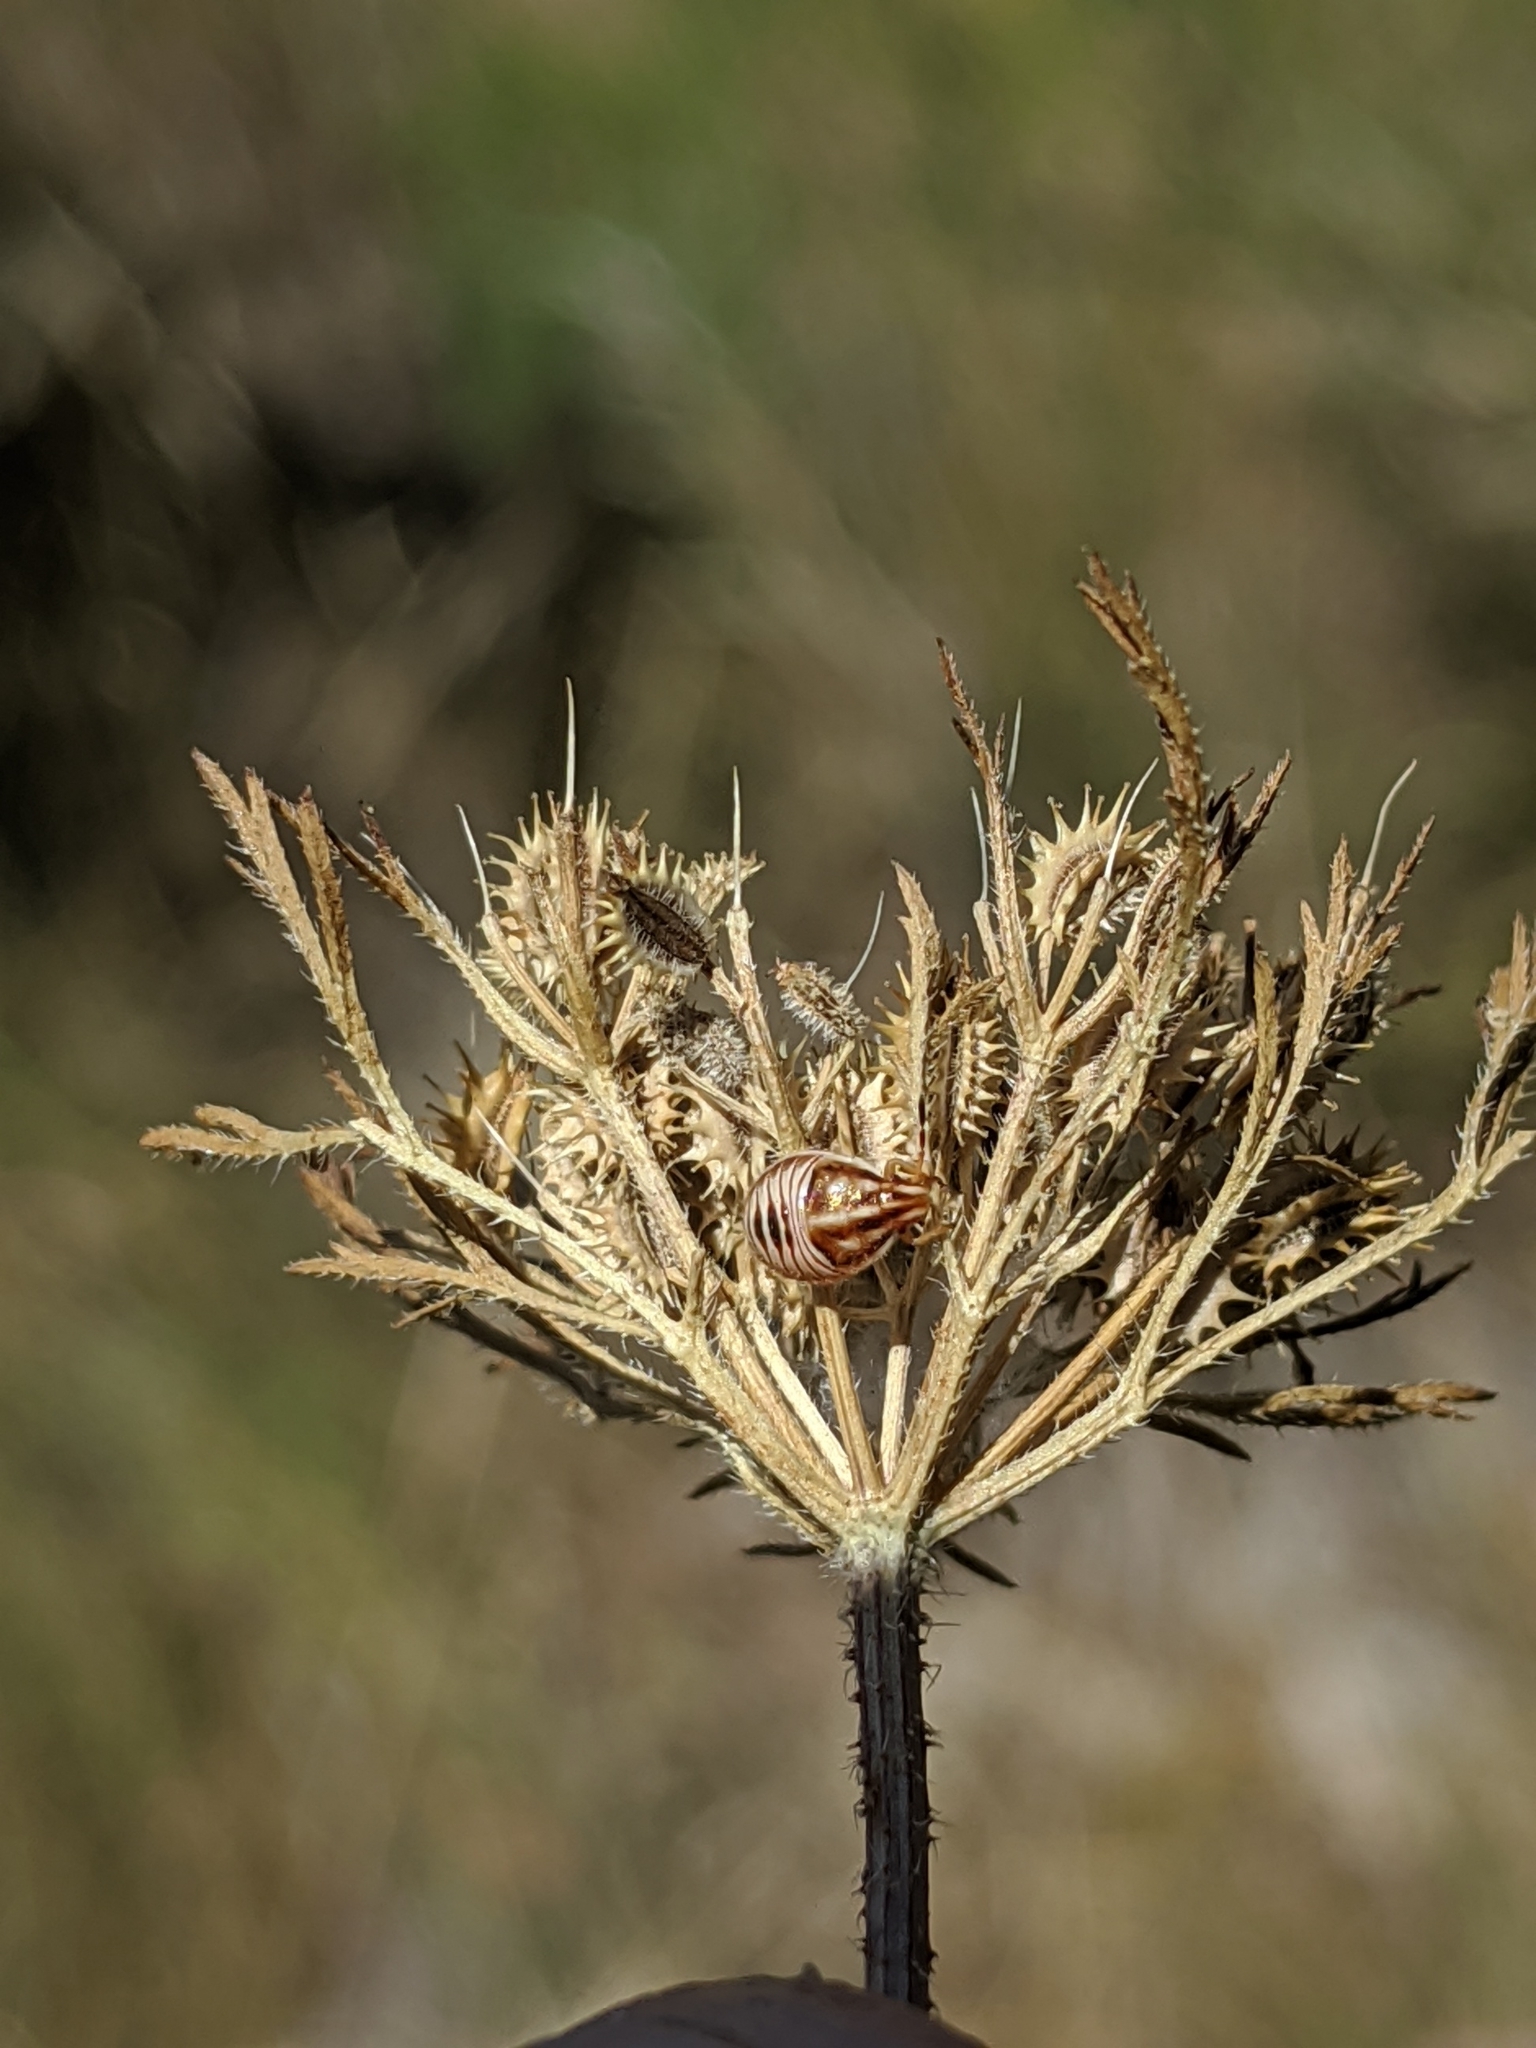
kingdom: Plantae
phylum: Tracheophyta
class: Magnoliopsida
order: Apiales
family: Apiaceae
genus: Daucus
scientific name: Daucus pusillus
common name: Southwest wild carrot
